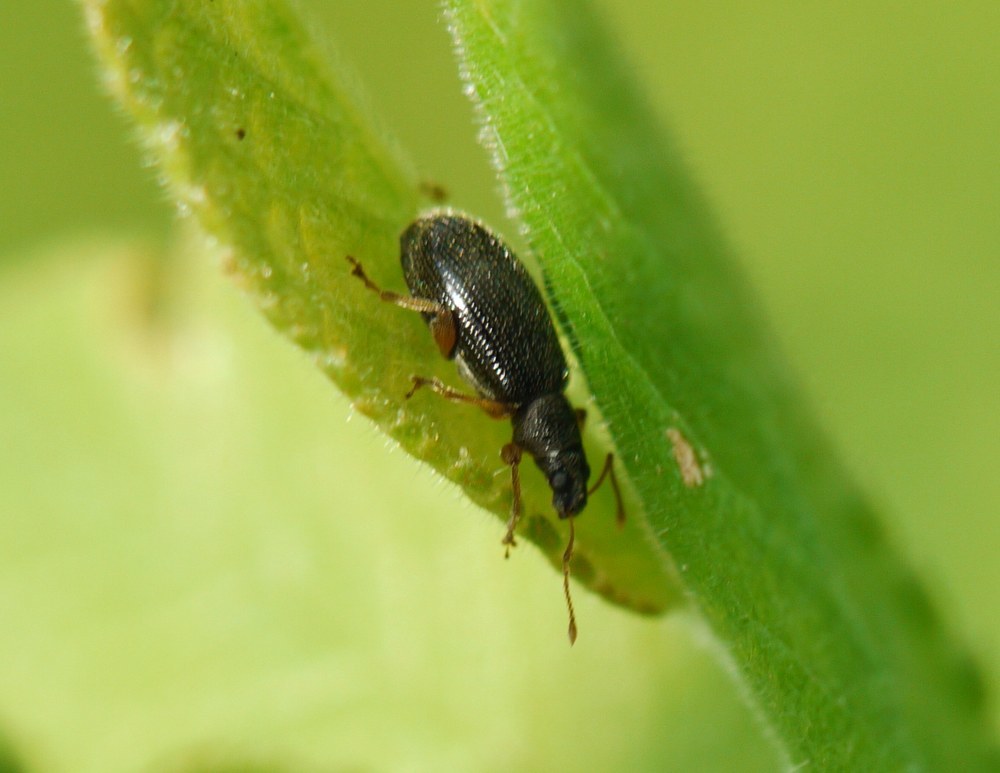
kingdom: Animalia
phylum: Arthropoda
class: Insecta
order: Coleoptera
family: Curculionidae
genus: Phyllobius
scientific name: Phyllobius oblongus
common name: Brown leaf weevil
